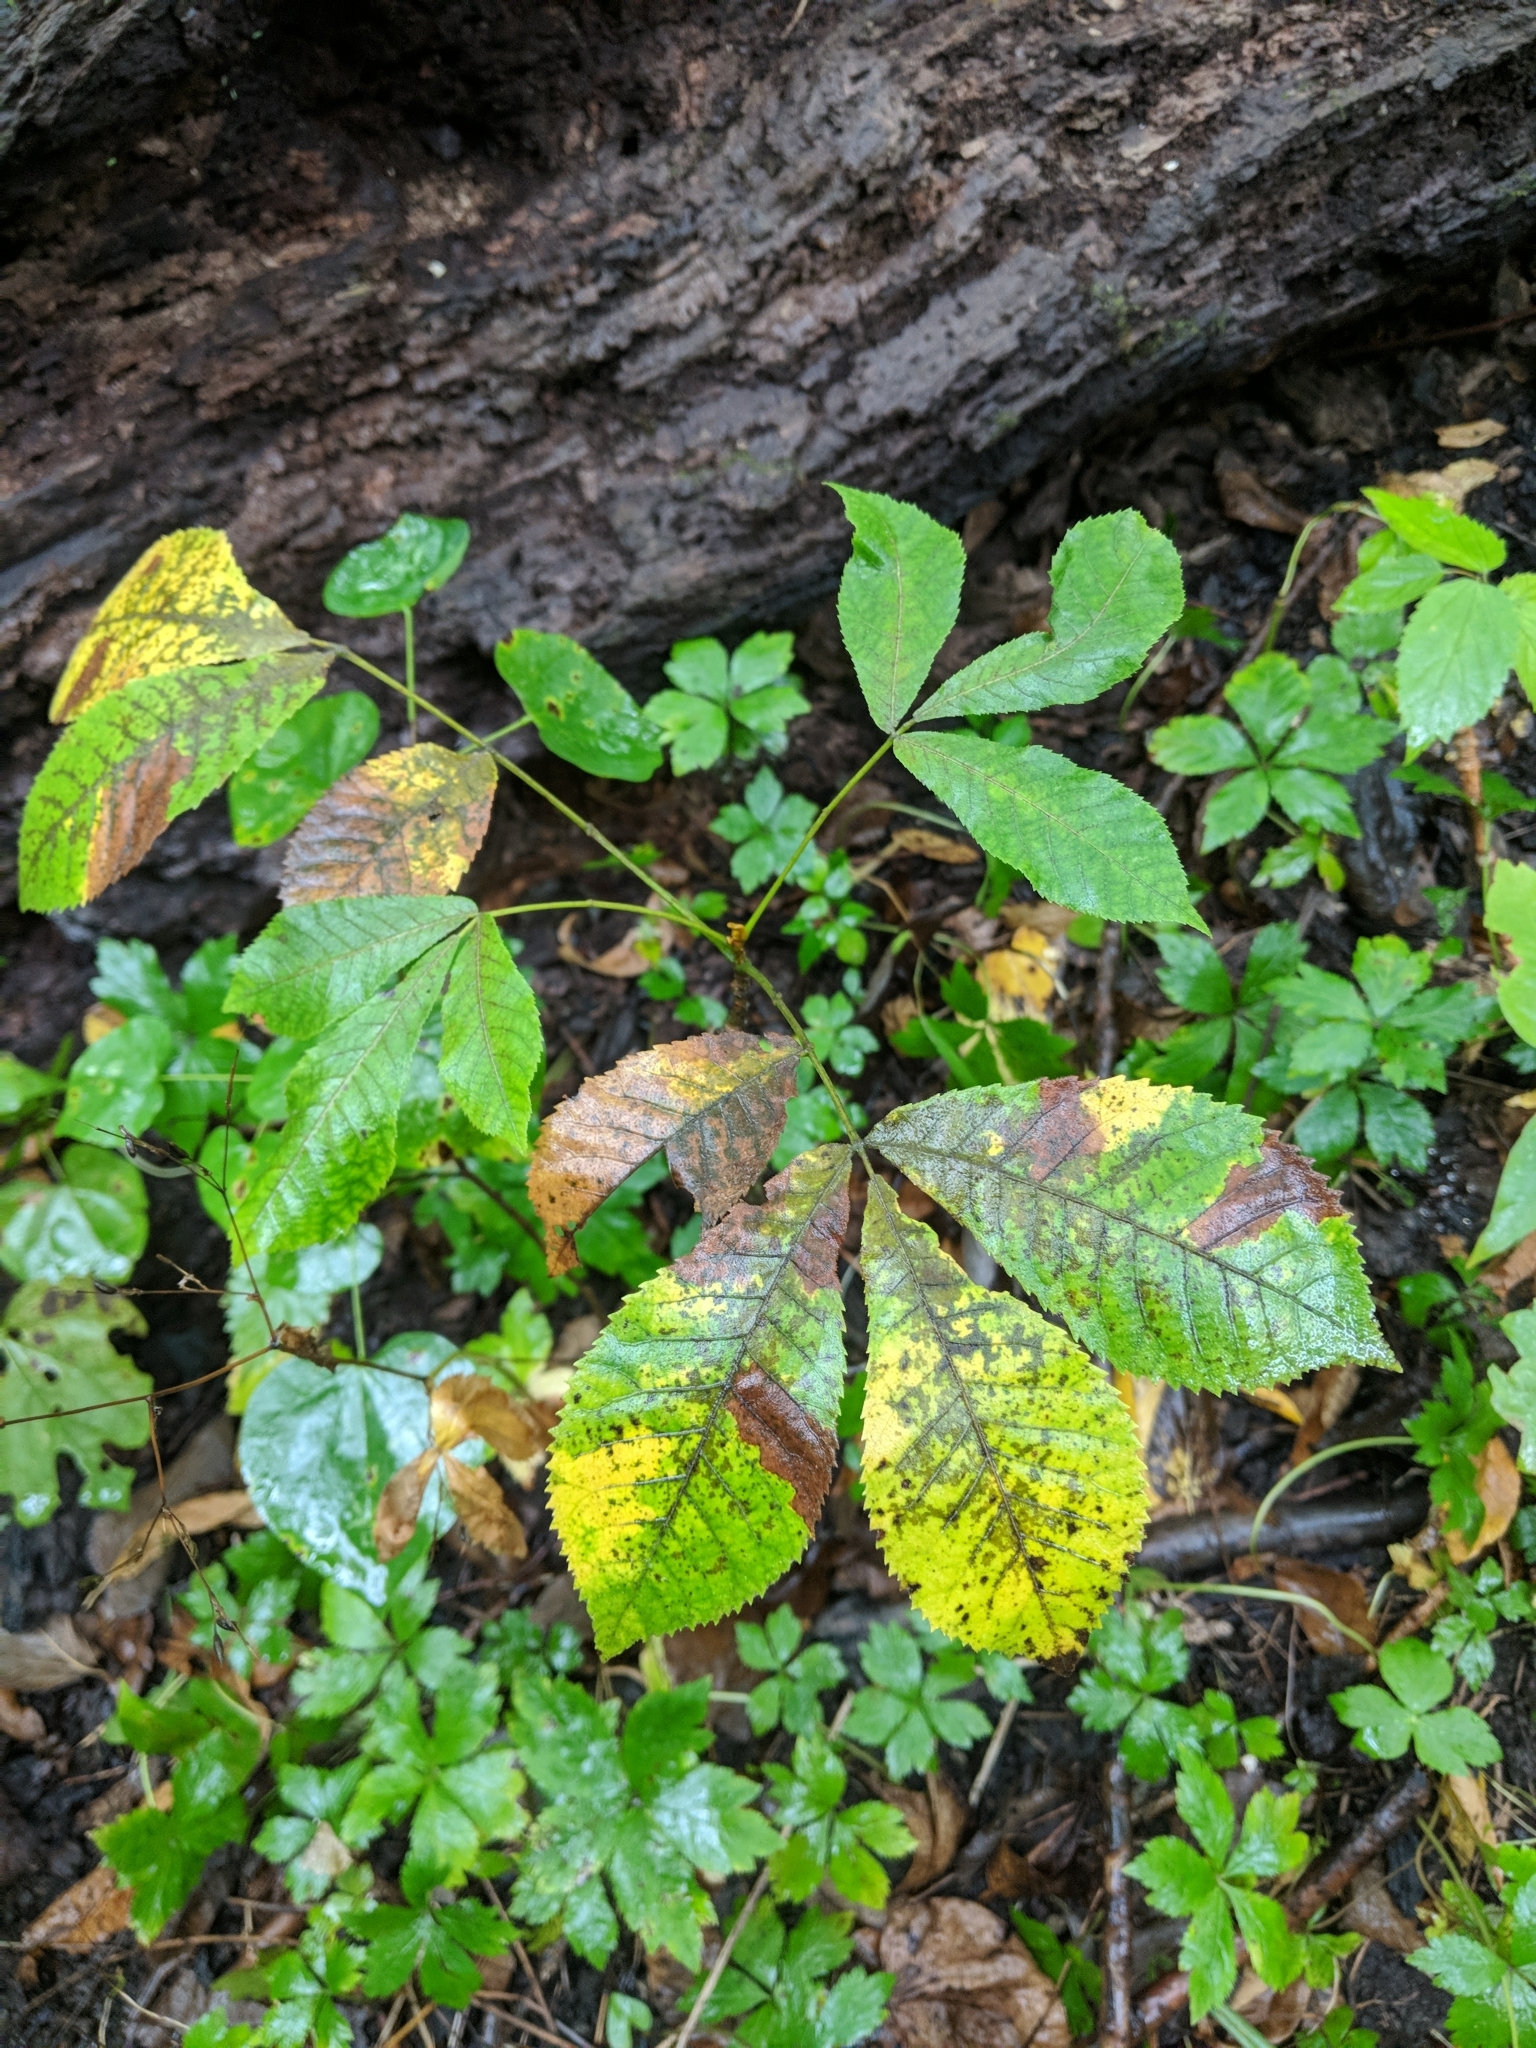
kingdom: Plantae
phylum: Tracheophyta
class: Magnoliopsida
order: Fagales
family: Juglandaceae
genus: Carya
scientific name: Carya cordiformis
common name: Bitternut hickory
